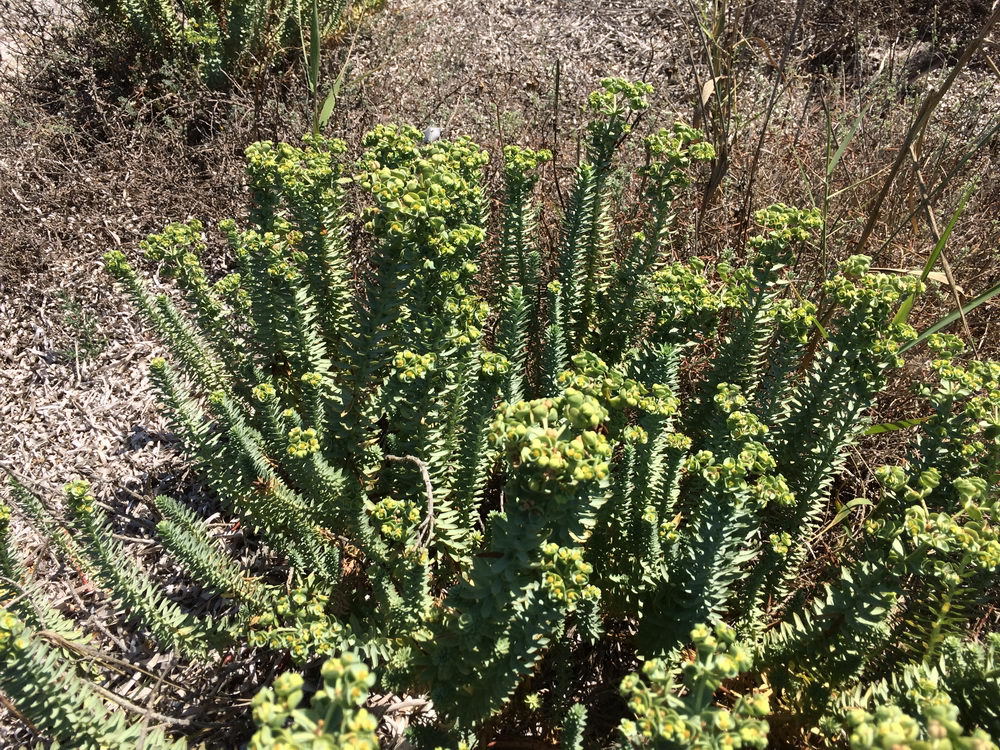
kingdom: Plantae
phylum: Tracheophyta
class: Magnoliopsida
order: Malpighiales
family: Euphorbiaceae
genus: Euphorbia
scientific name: Euphorbia paralias
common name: Sea spurge
